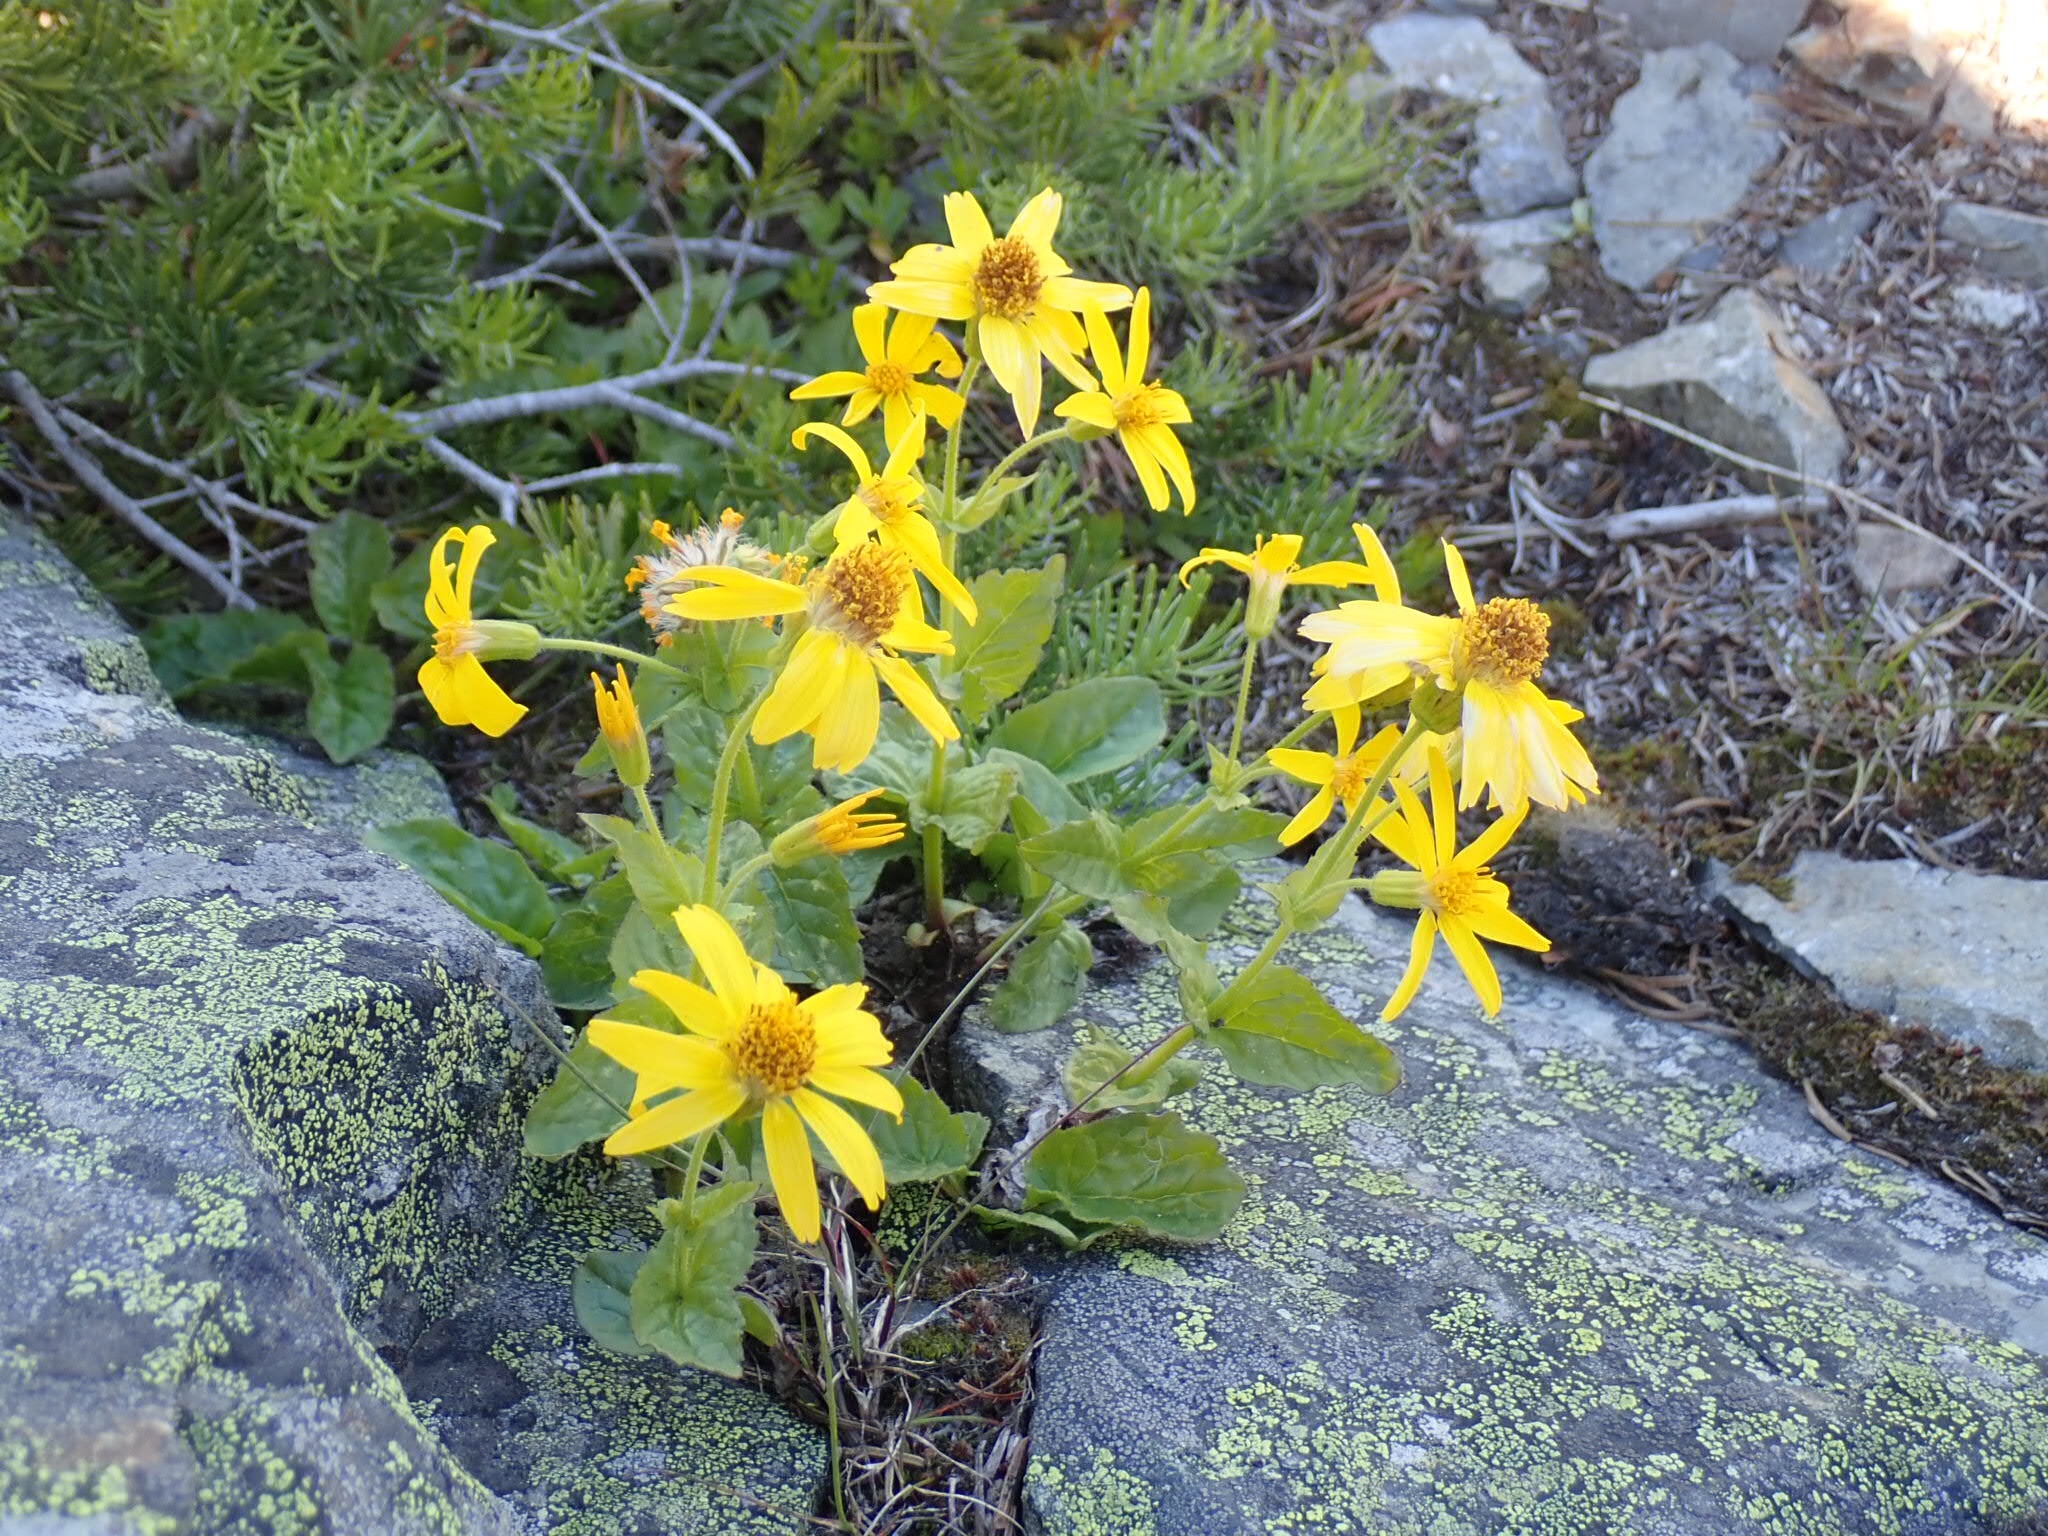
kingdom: Plantae
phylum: Tracheophyta
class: Magnoliopsida
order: Asterales
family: Asteraceae
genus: Arnica
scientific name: Arnica cordifolia
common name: Heart-leaf arnica
